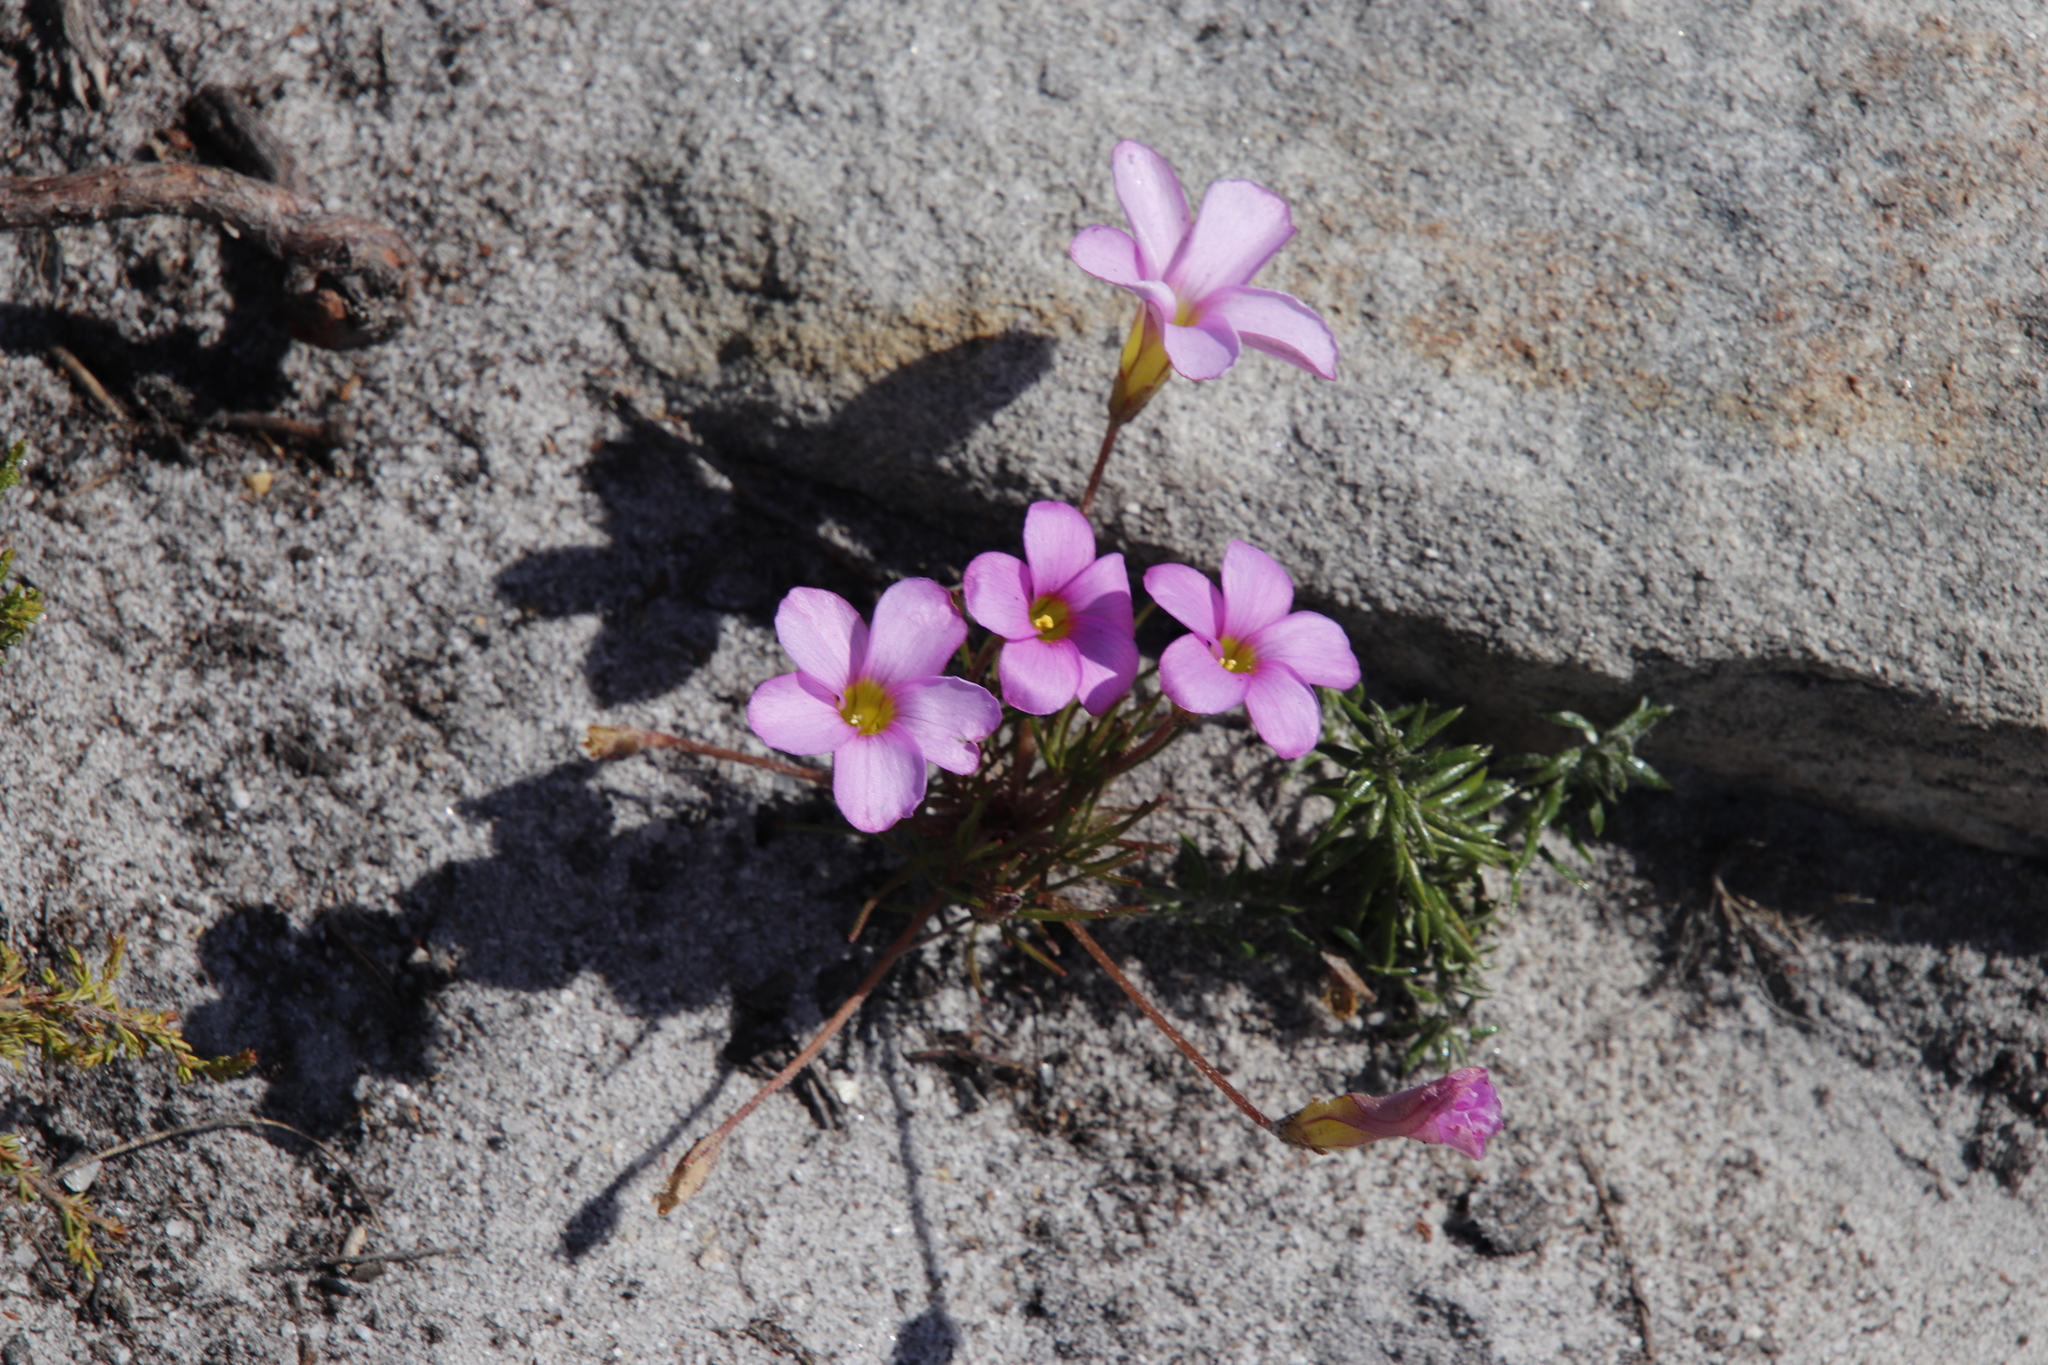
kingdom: Plantae
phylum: Tracheophyta
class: Magnoliopsida
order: Oxalidales
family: Oxalidaceae
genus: Oxalis
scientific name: Oxalis polyphylla
